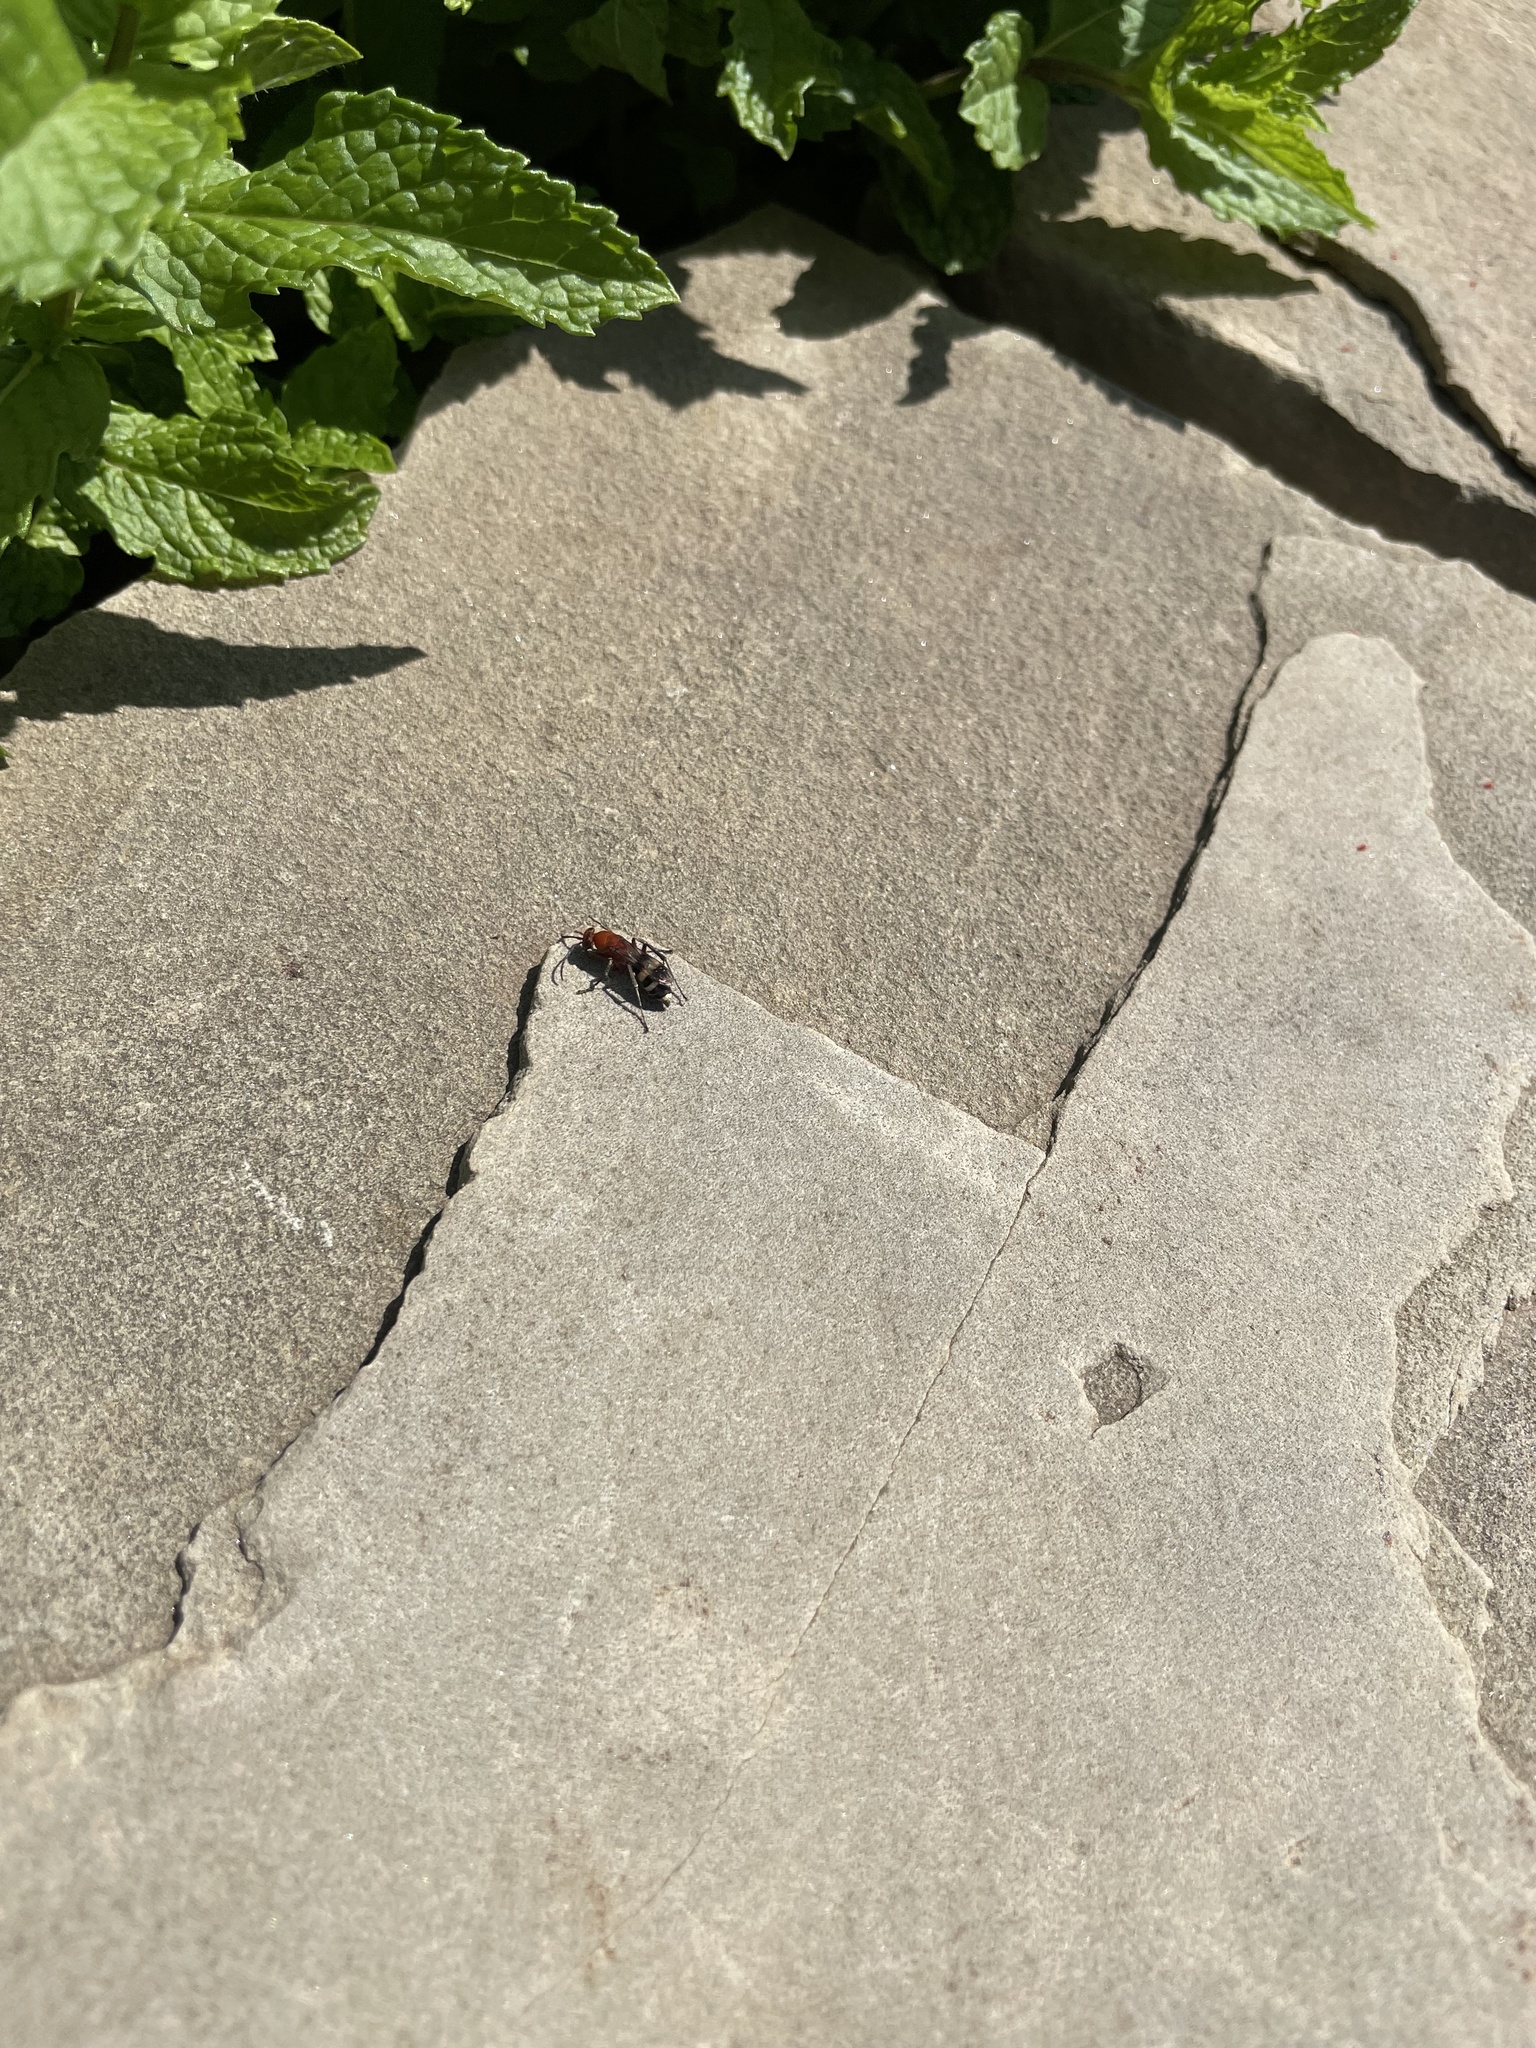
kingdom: Animalia
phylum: Arthropoda
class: Insecta
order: Hymenoptera
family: Pompilidae
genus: Psorthaspis
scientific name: Psorthaspis luctuosa
